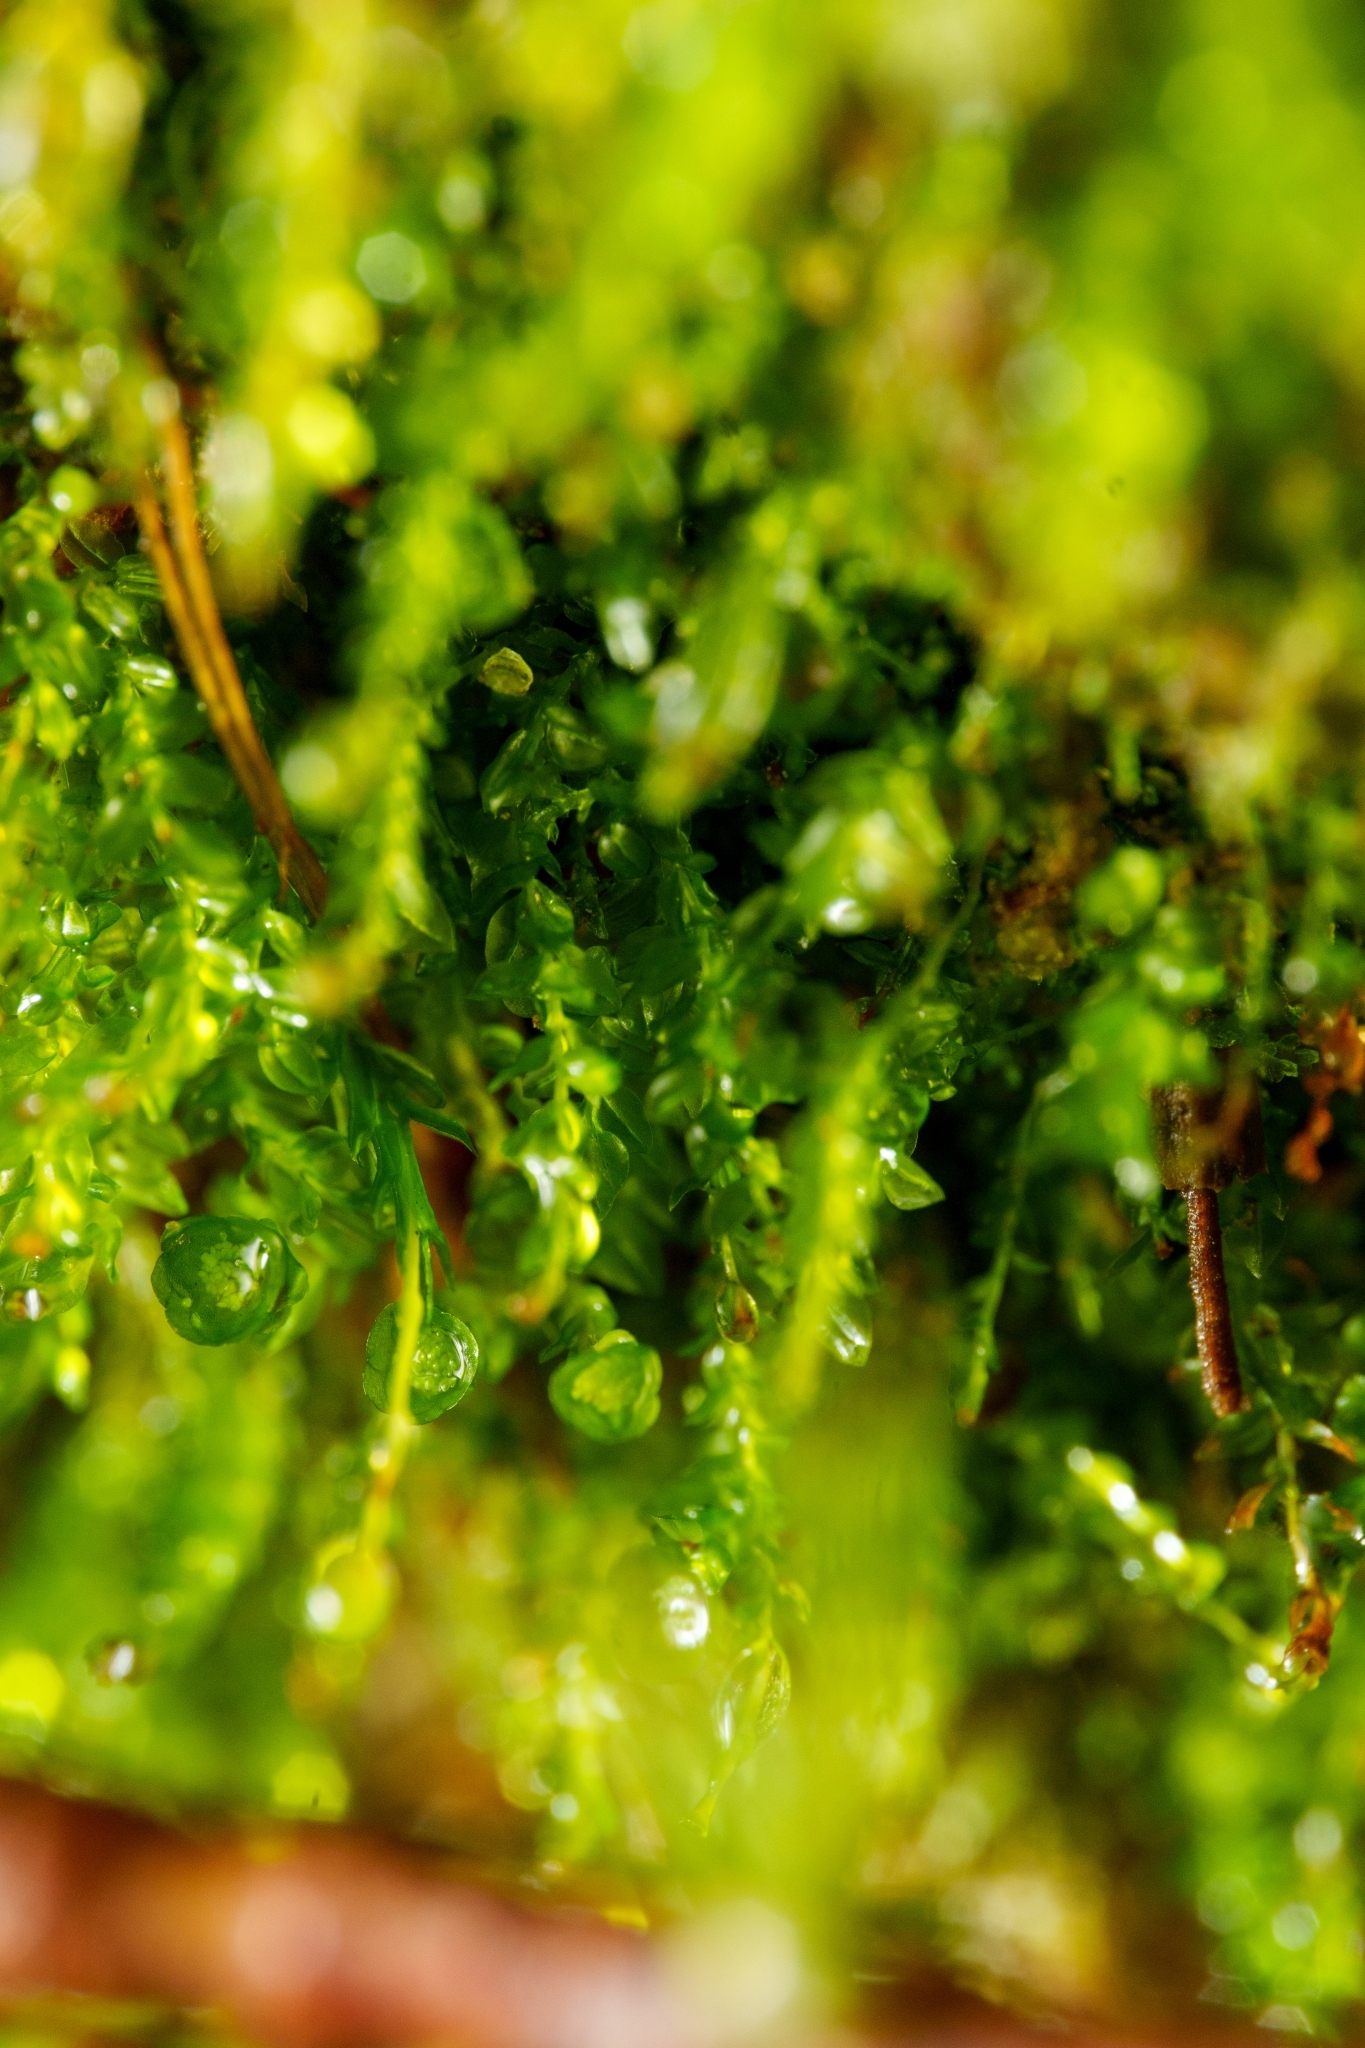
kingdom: Plantae
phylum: Bryophyta
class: Polytrichopsida
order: Tetraphidales
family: Tetraphidaceae
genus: Tetraphis
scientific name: Tetraphis pellucida
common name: Common four-toothed moss
